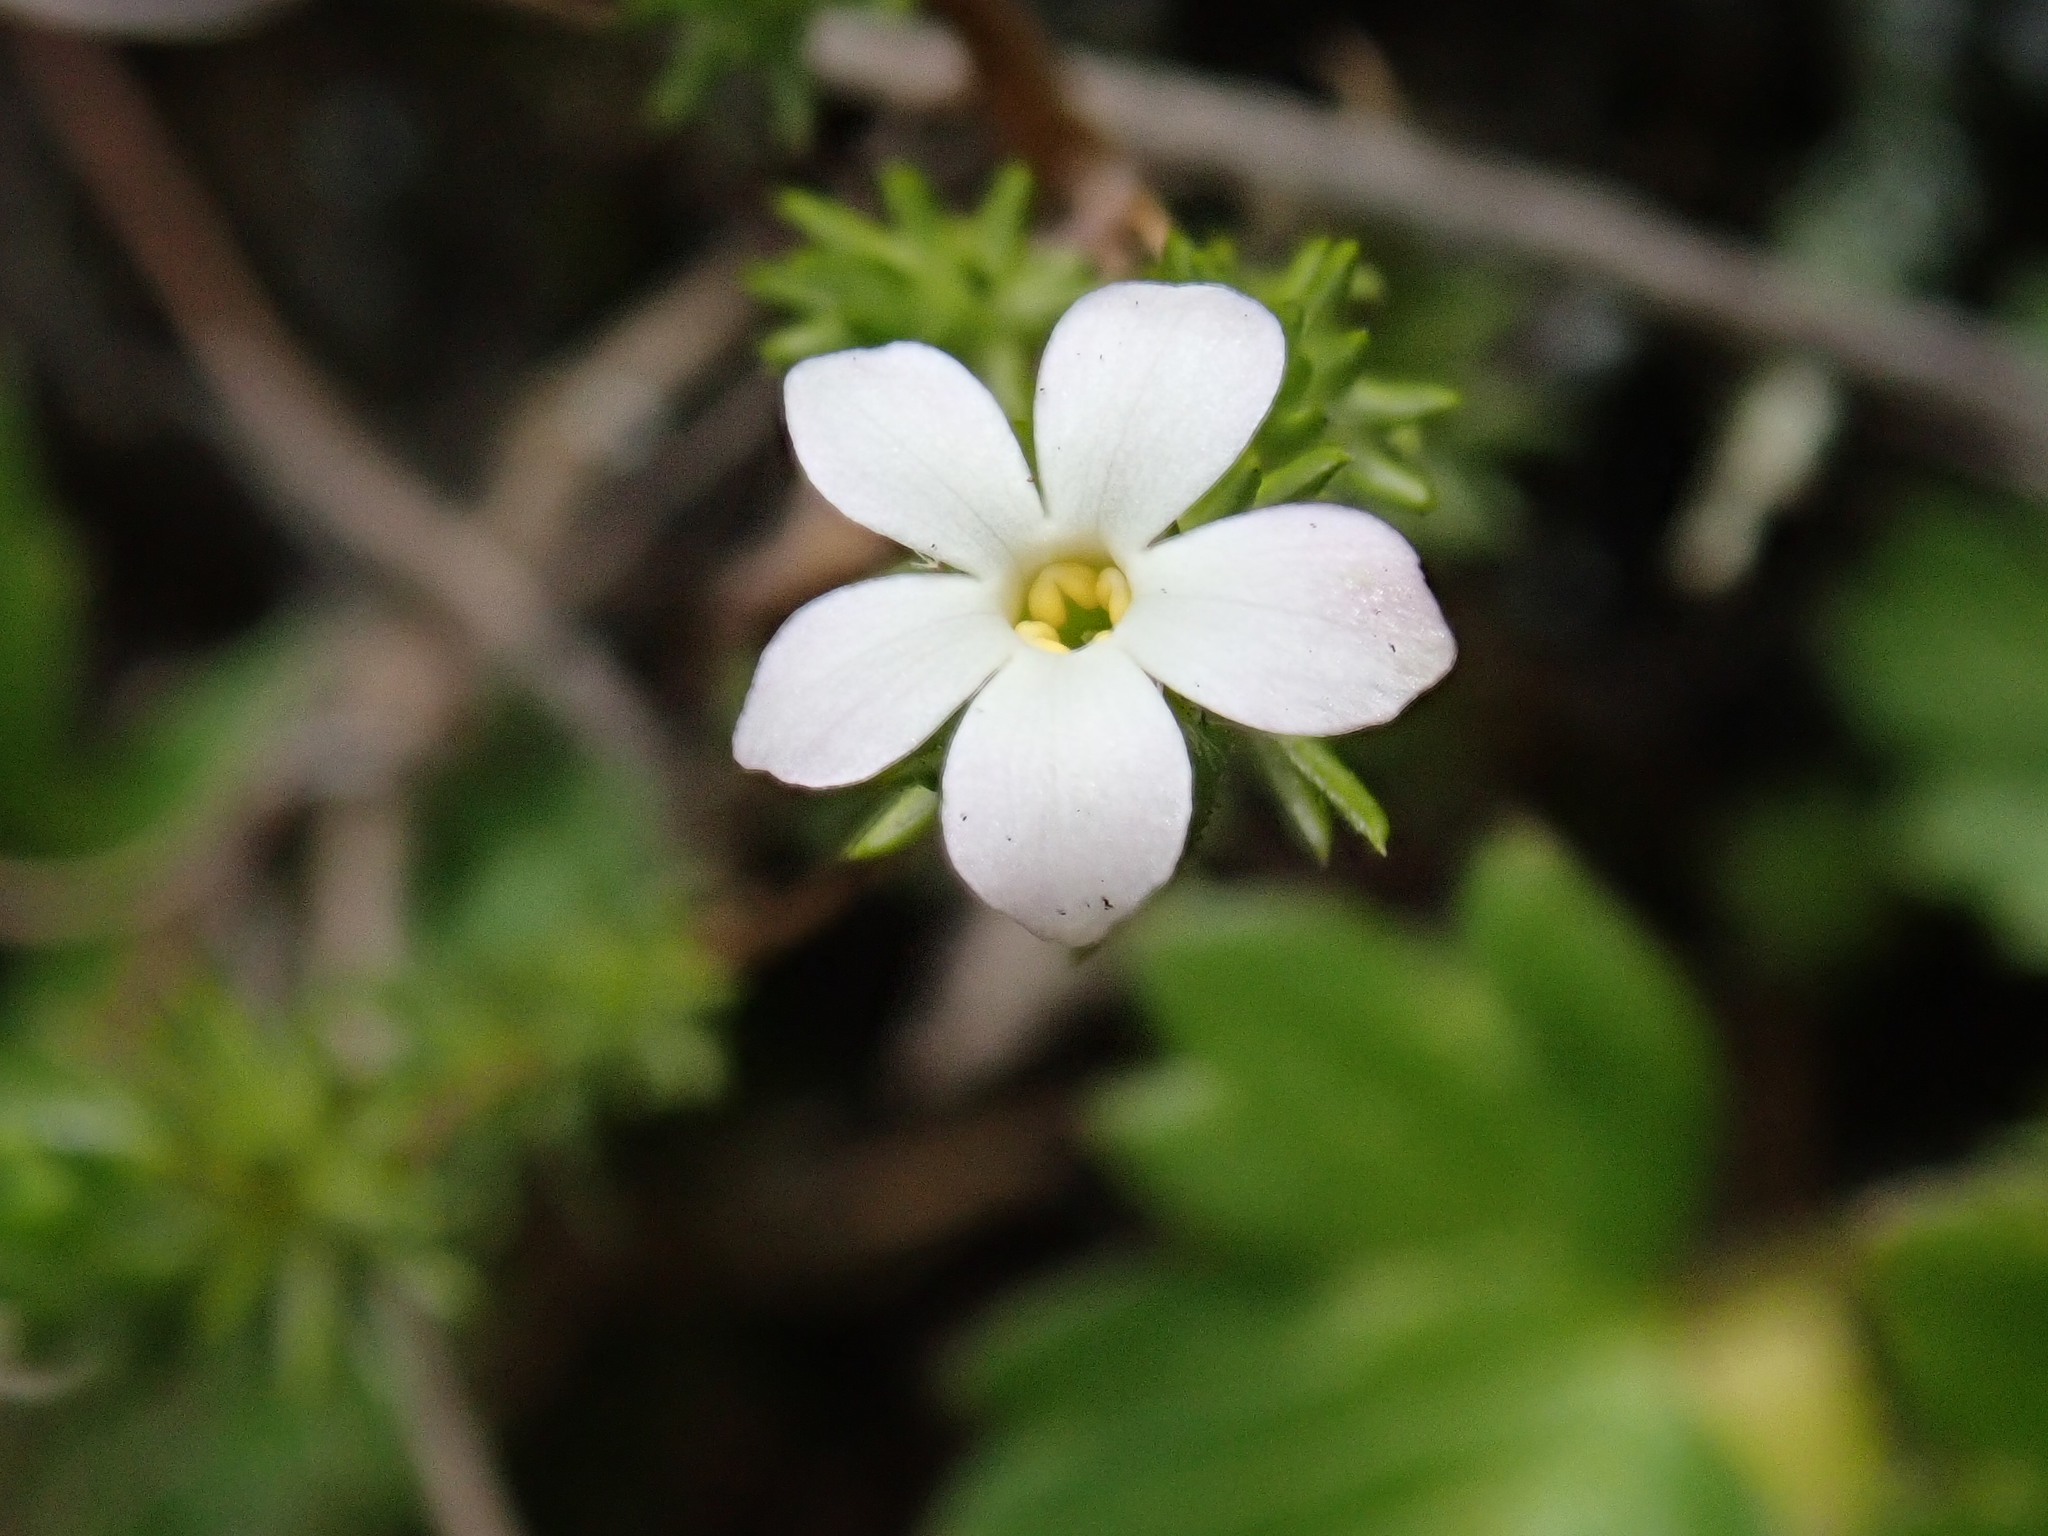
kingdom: Plantae
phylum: Tracheophyta
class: Magnoliopsida
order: Lamiales
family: Plantaginaceae
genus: Hemiphragma
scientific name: Hemiphragma heterophyllum
